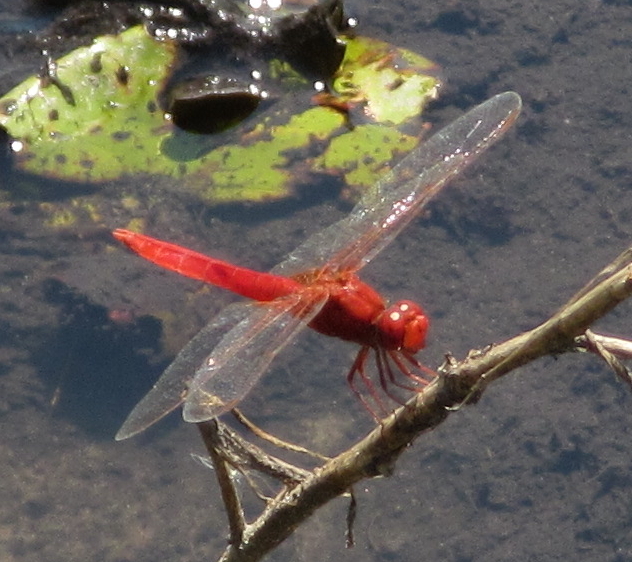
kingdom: Animalia
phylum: Arthropoda
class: Insecta
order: Odonata
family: Libellulidae
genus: Crocothemis
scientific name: Crocothemis erythraea
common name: Scarlet dragonfly
